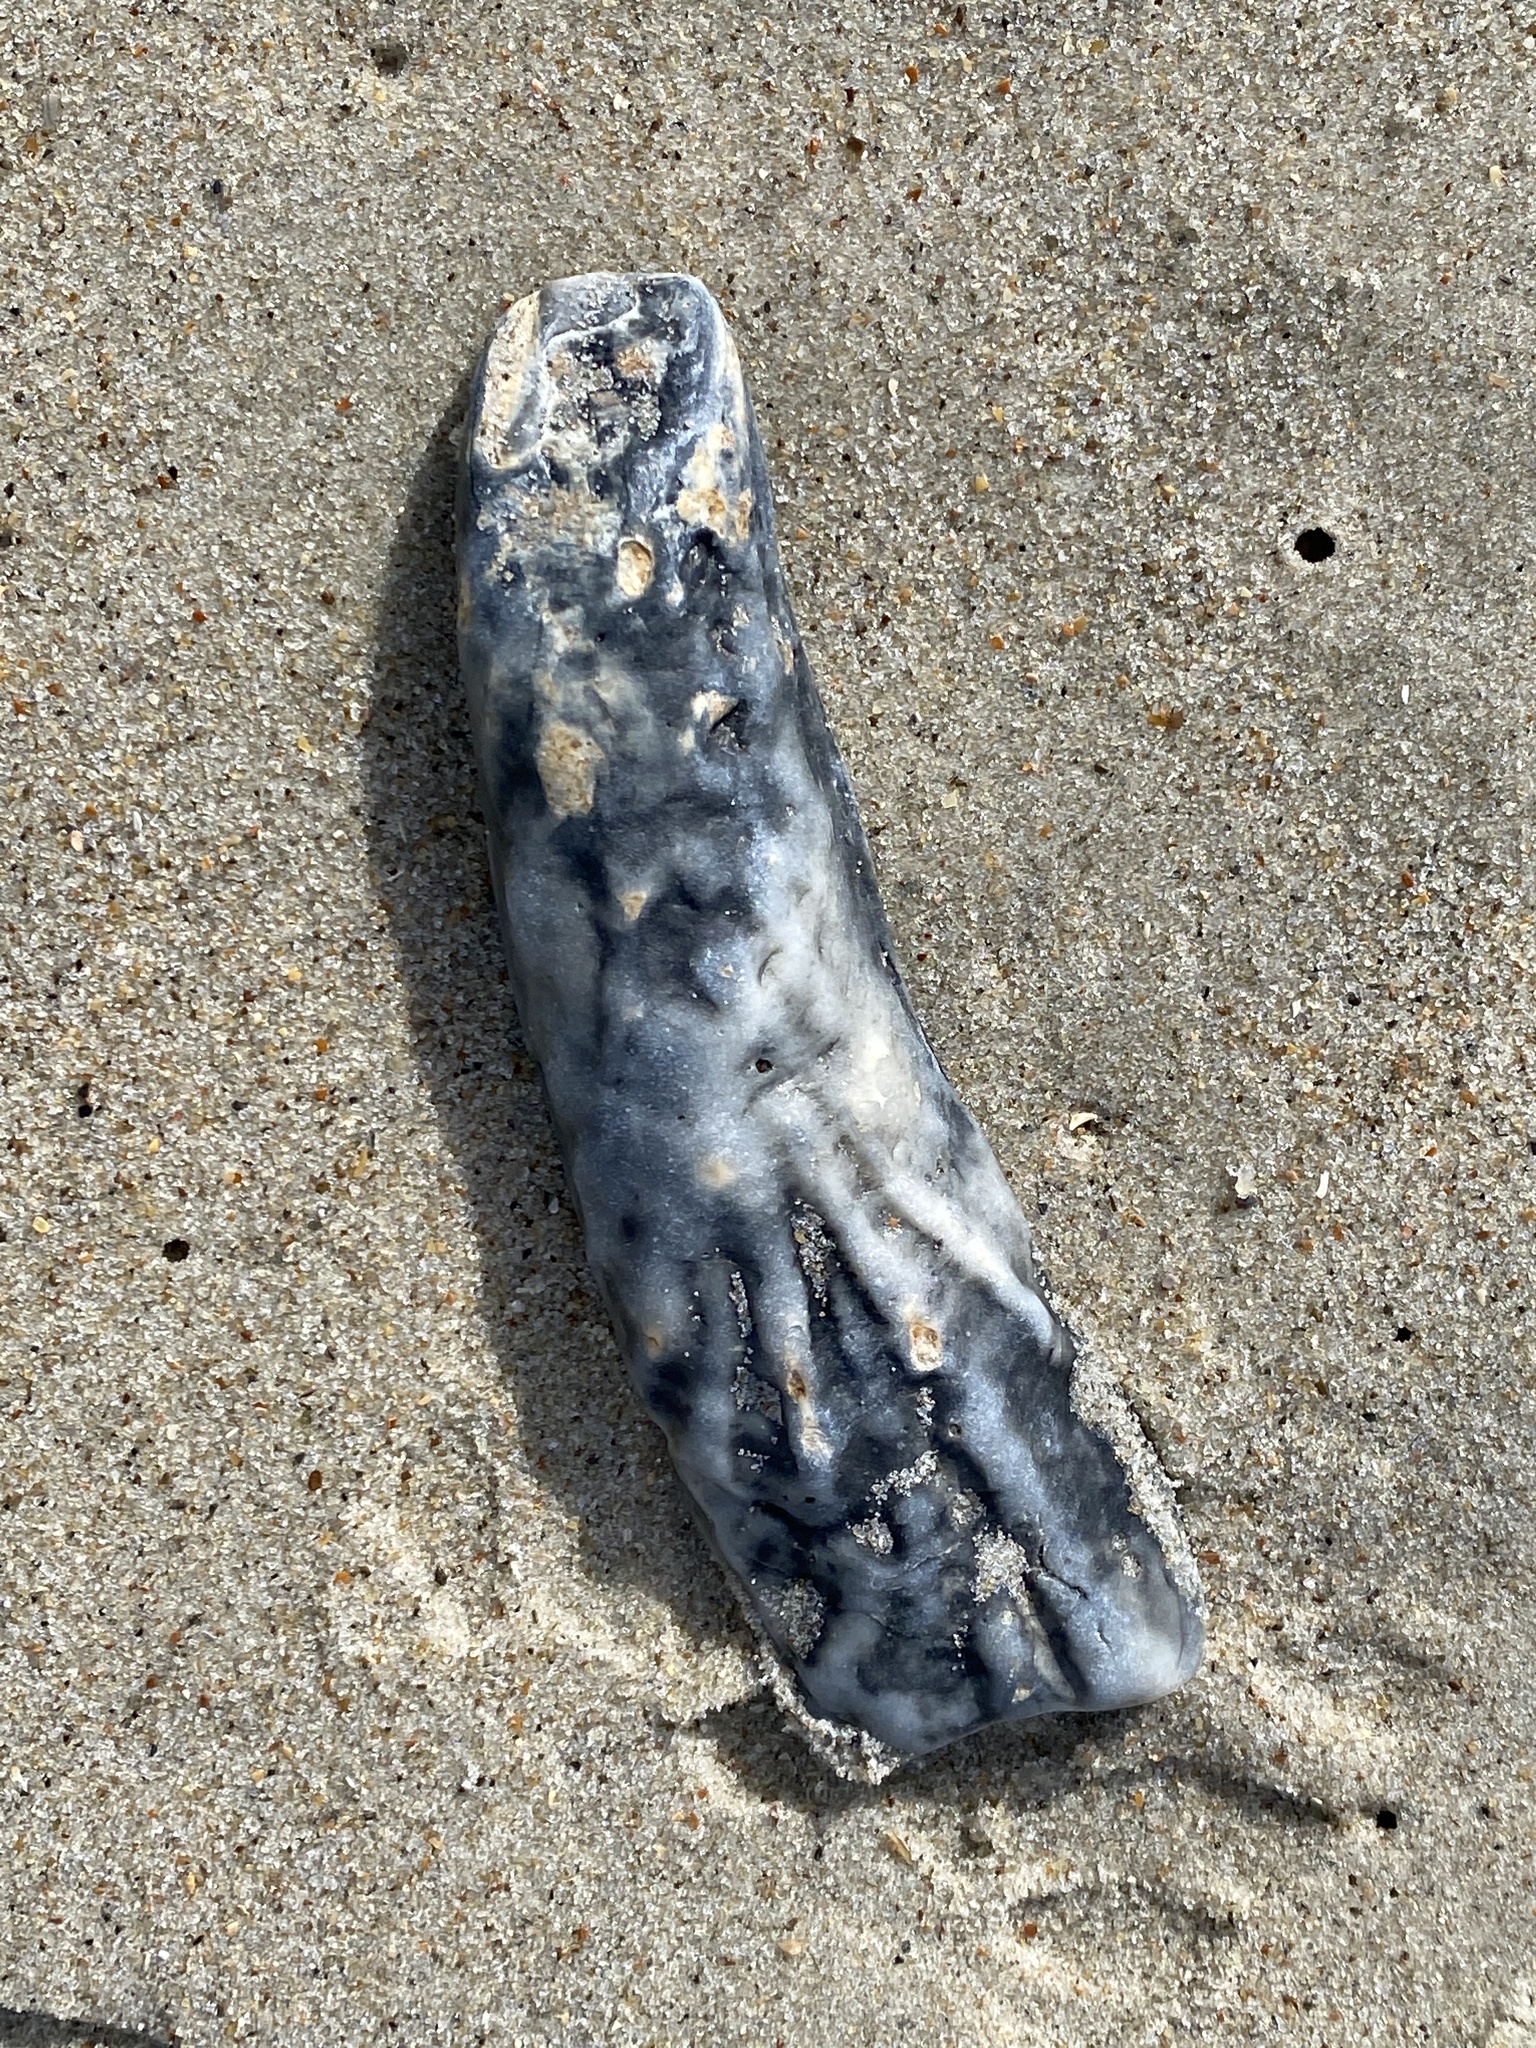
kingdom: Animalia
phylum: Mollusca
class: Bivalvia
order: Ostreida
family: Ostreidae
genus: Crassostrea
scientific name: Crassostrea virginica
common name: American oyster
